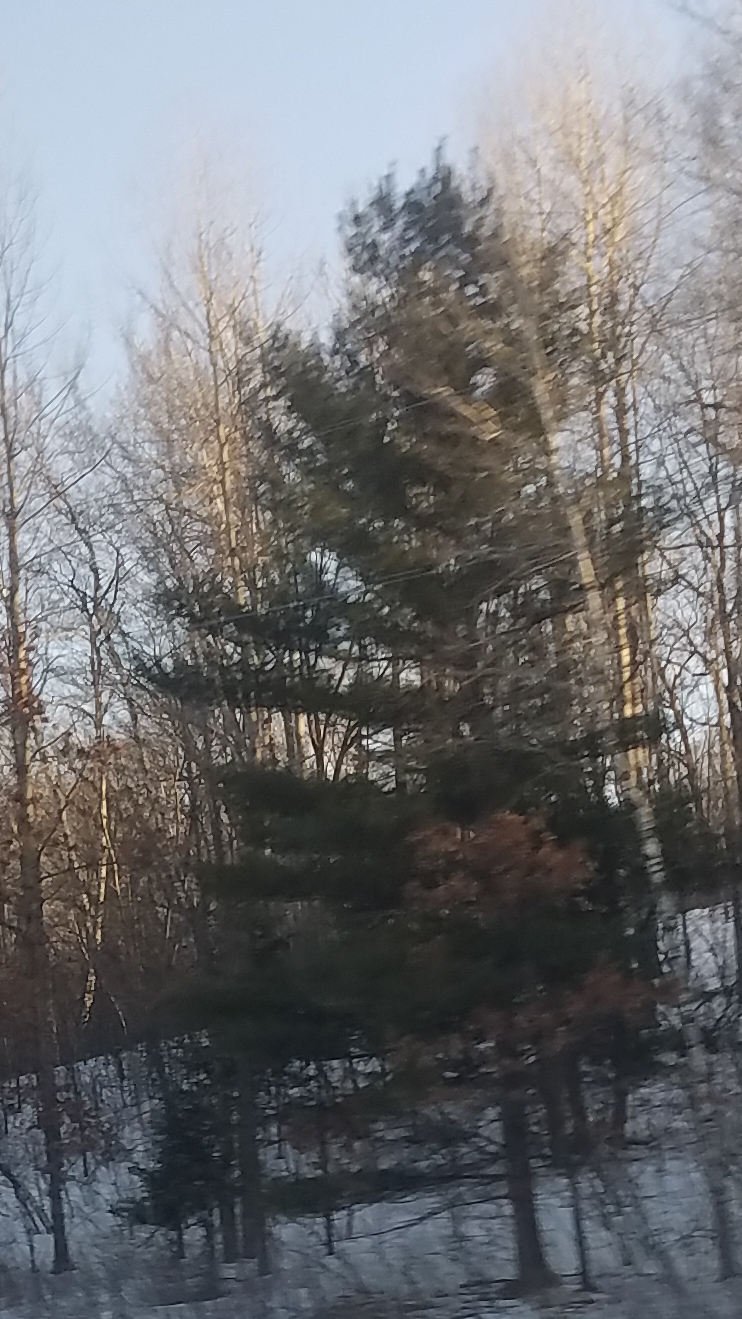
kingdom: Plantae
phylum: Tracheophyta
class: Pinopsida
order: Pinales
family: Pinaceae
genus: Pinus
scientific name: Pinus strobus
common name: Weymouth pine
